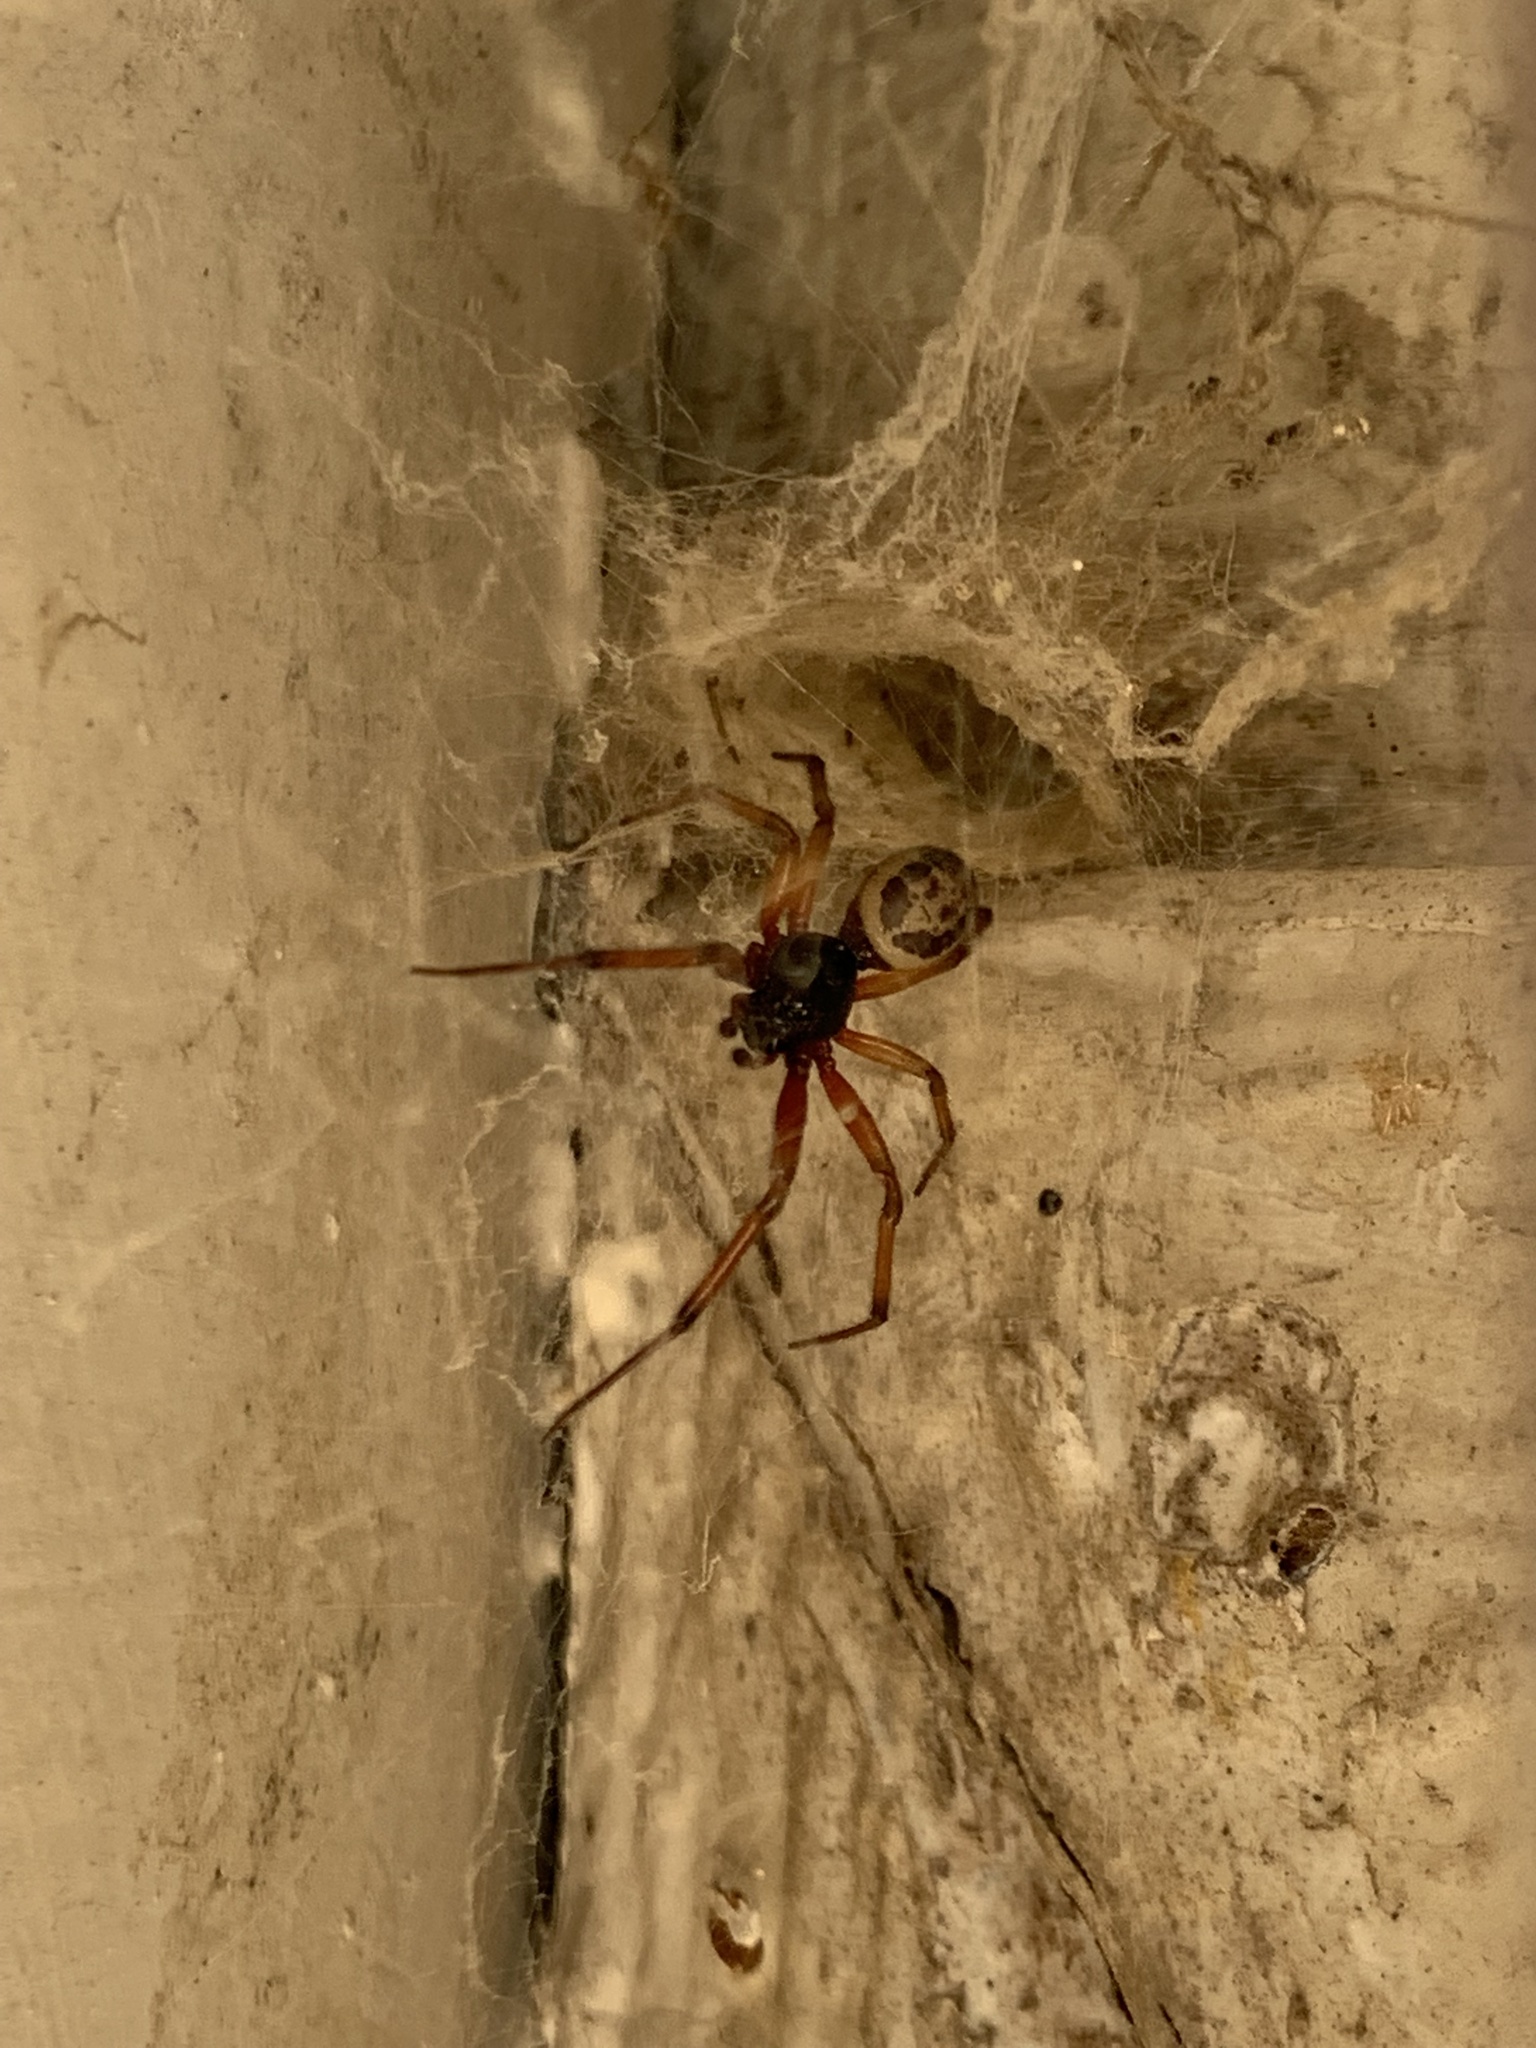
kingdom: Animalia
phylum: Arthropoda
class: Arachnida
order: Araneae
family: Theridiidae
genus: Steatoda
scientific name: Steatoda nobilis
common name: Cobweb weaver
